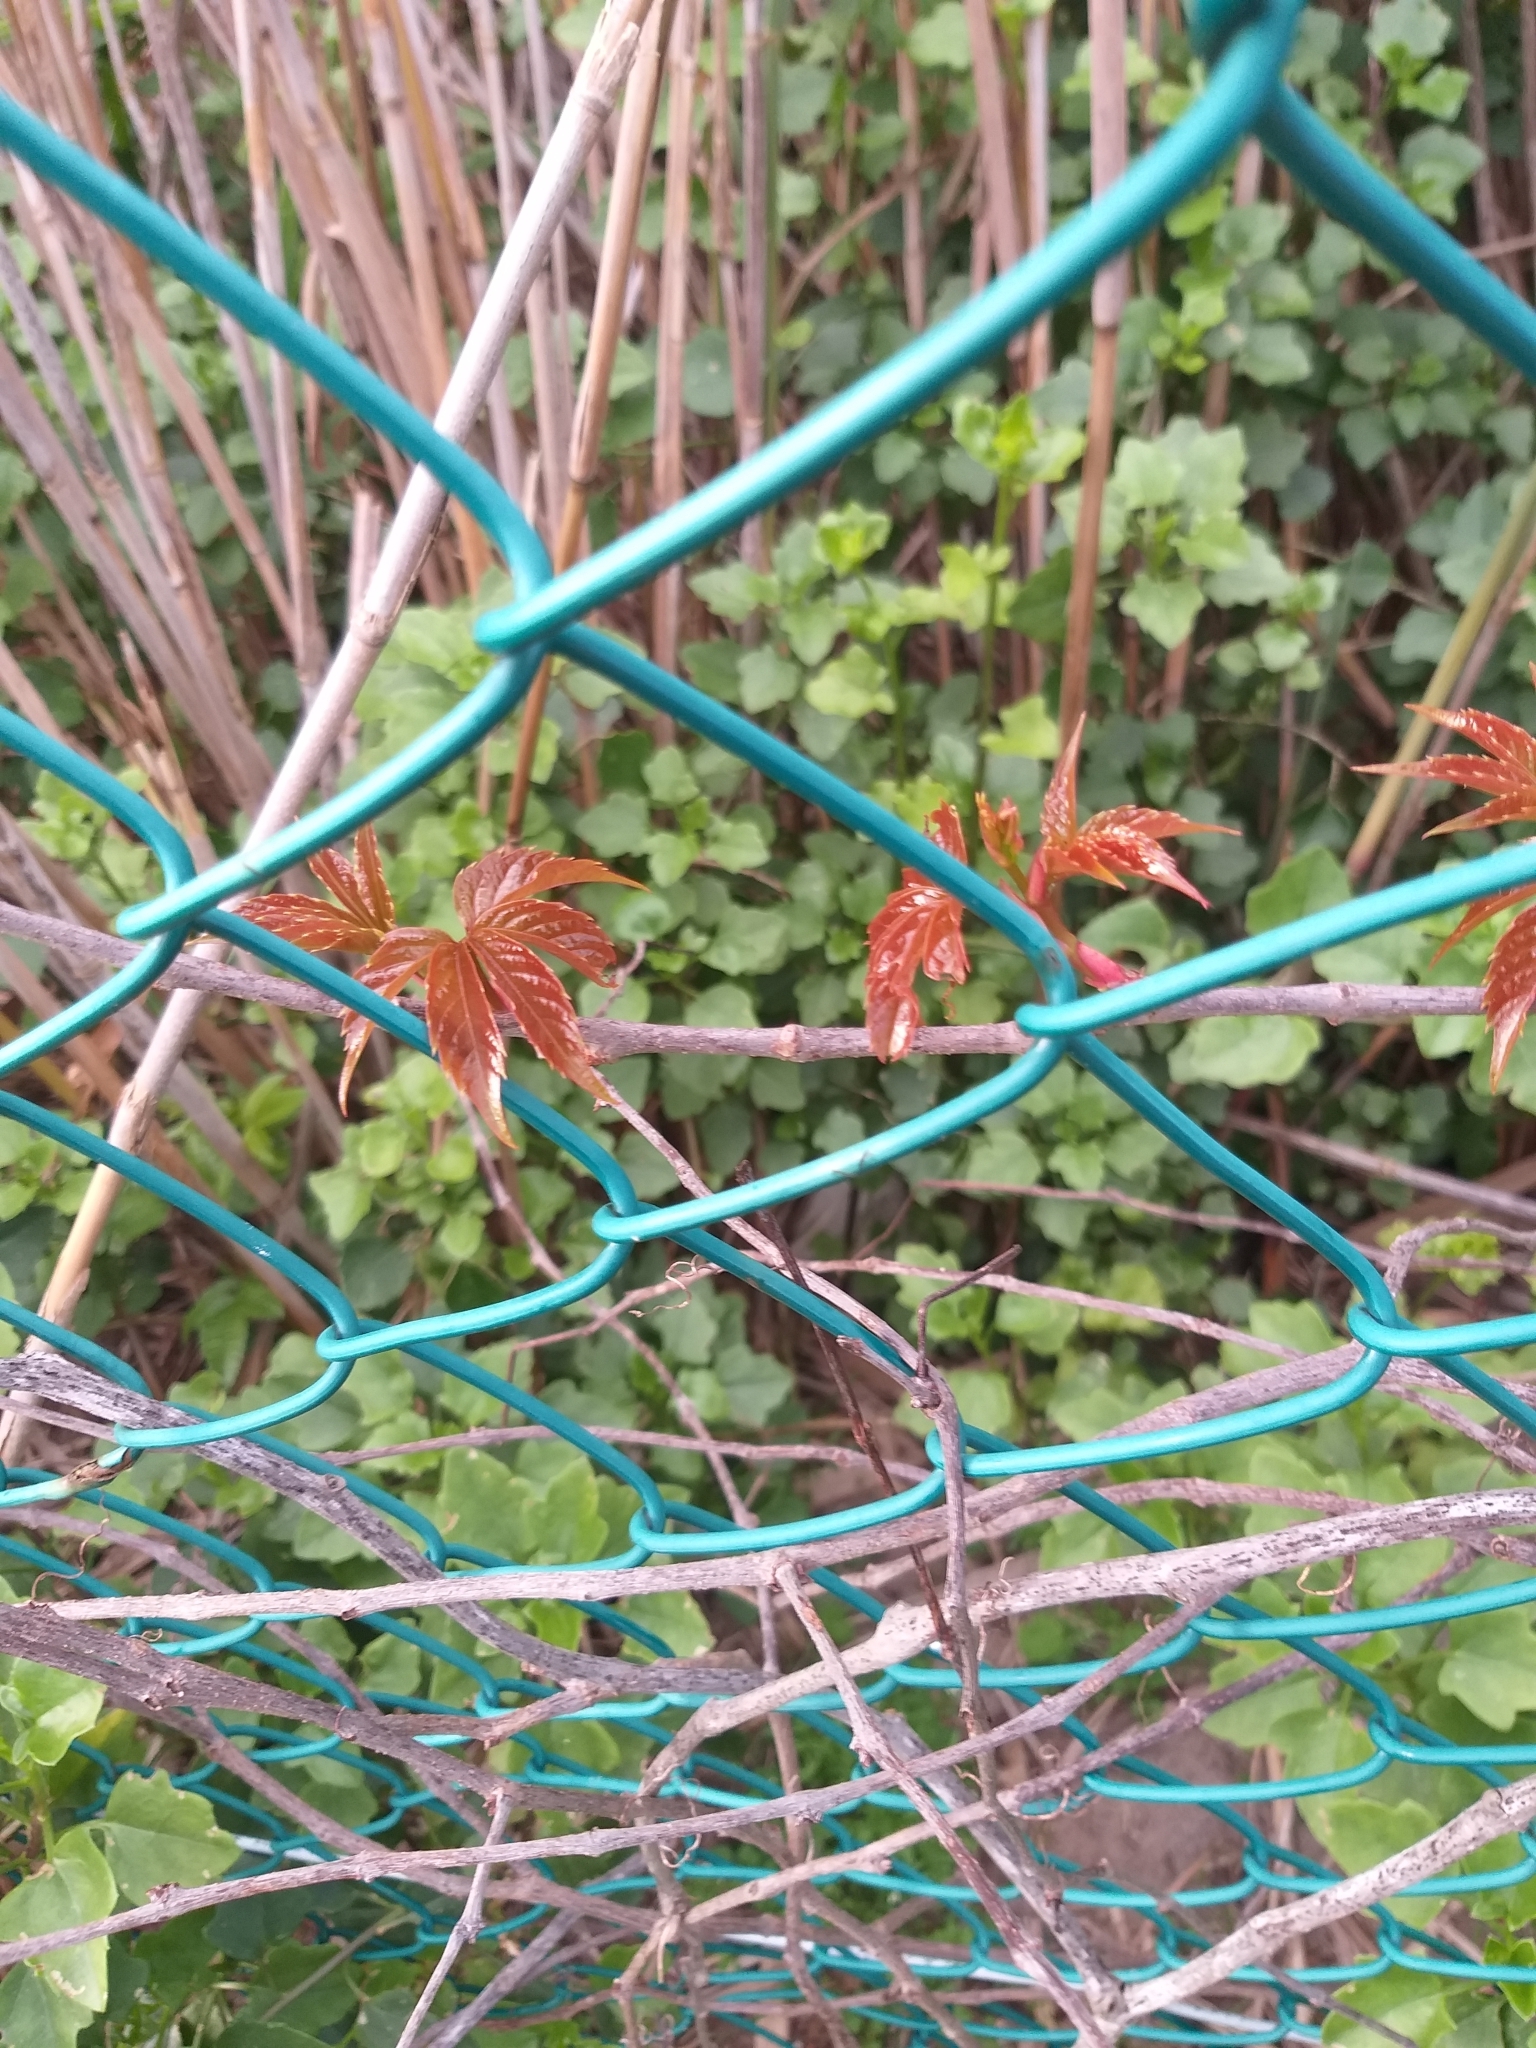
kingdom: Plantae
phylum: Tracheophyta
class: Magnoliopsida
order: Vitales
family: Vitaceae
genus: Parthenocissus
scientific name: Parthenocissus quinquefolia
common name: Virginia-creeper
